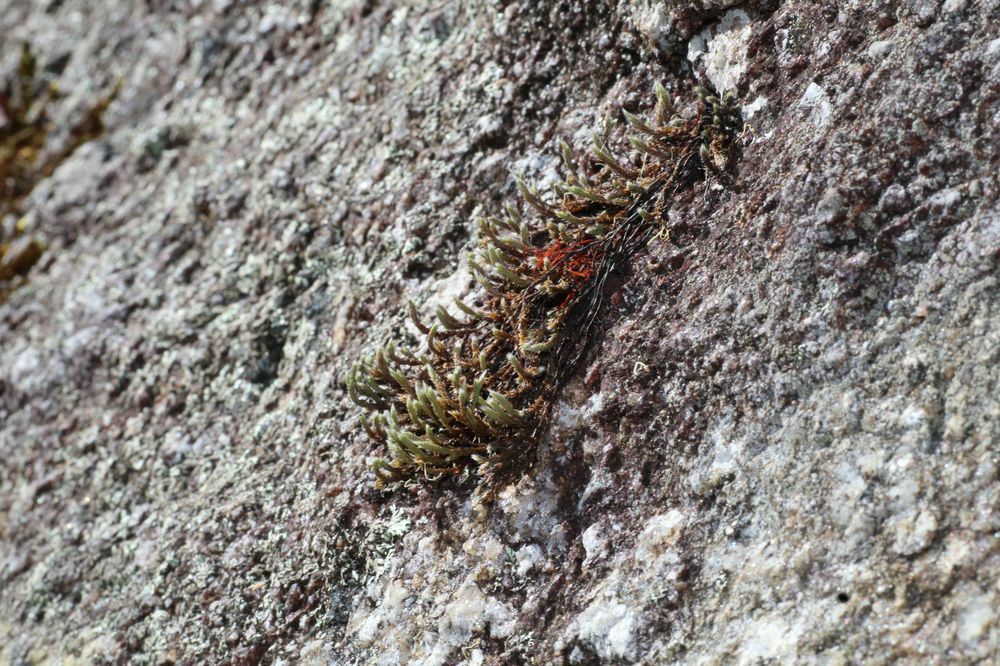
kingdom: Plantae
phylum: Bryophyta
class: Bryopsida
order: Hedwigiales
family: Hedwigiaceae
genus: Hedwigia
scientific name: Hedwigia ciliata
